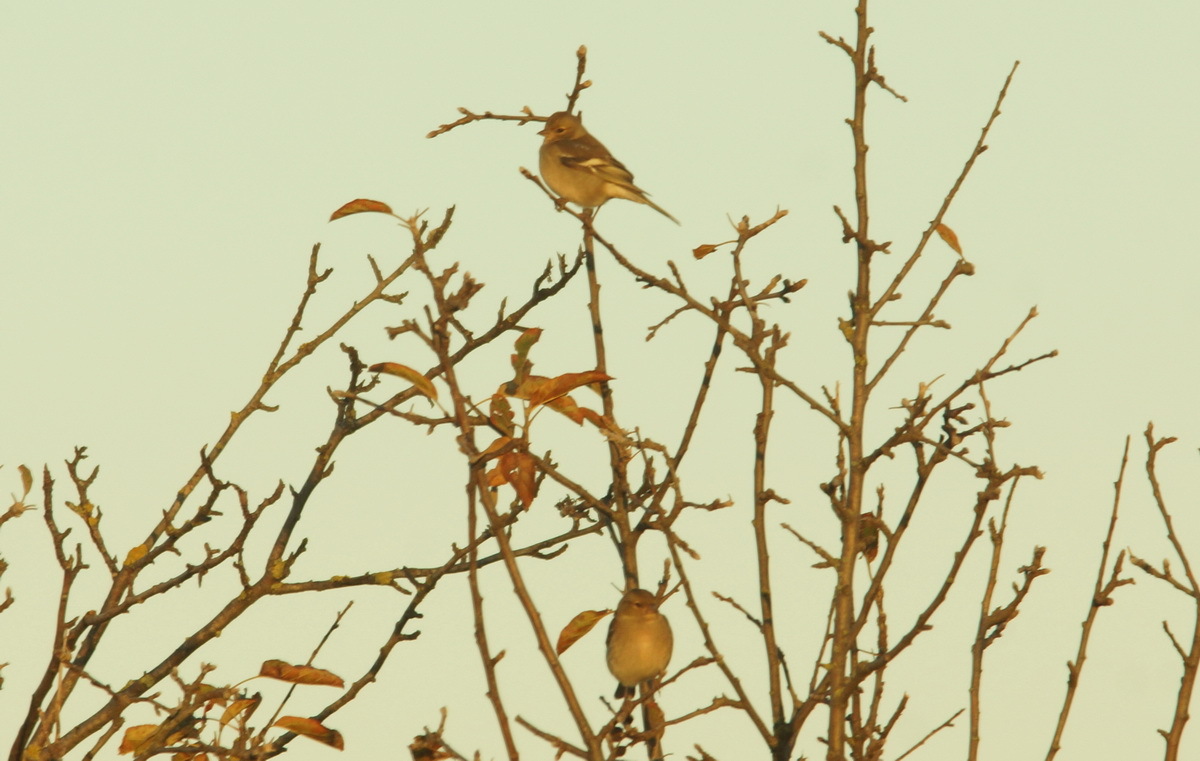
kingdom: Animalia
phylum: Chordata
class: Aves
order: Passeriformes
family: Fringillidae
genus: Fringilla
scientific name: Fringilla coelebs
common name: Common chaffinch
